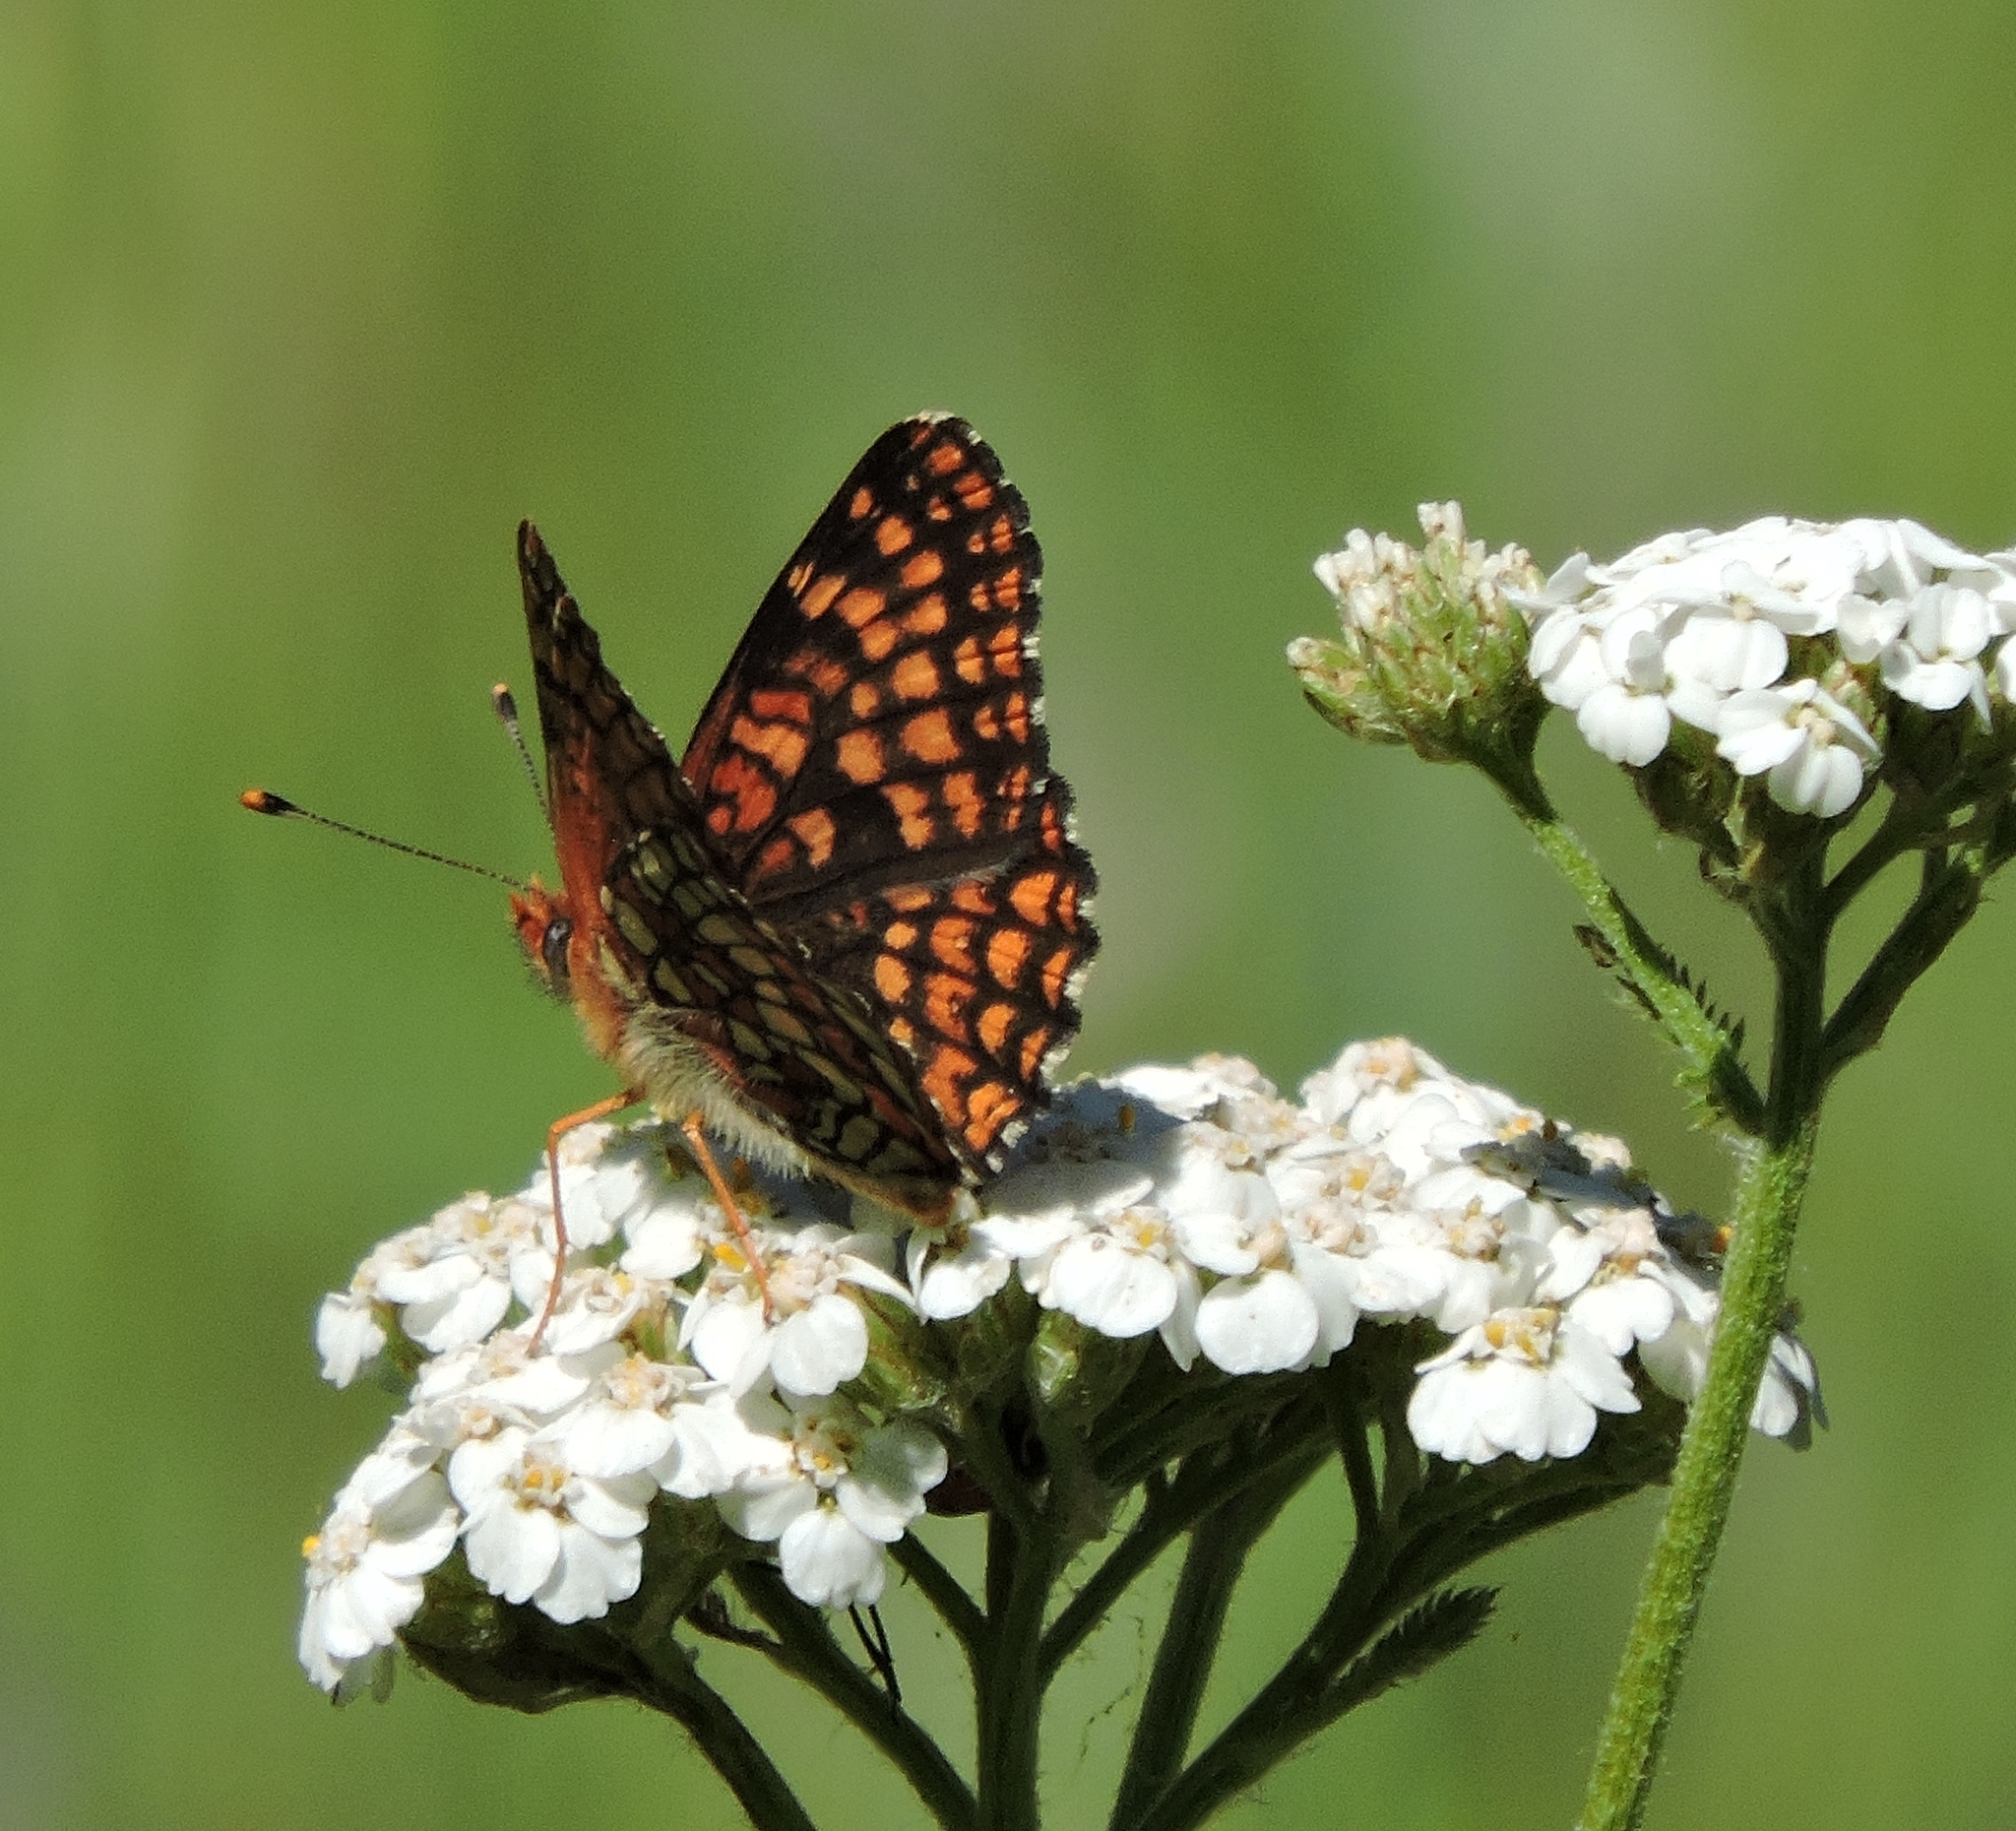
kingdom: Animalia
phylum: Arthropoda
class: Insecta
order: Lepidoptera
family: Nymphalidae
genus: Chlosyne
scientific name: Chlosyne palla
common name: Northern checkerspot
